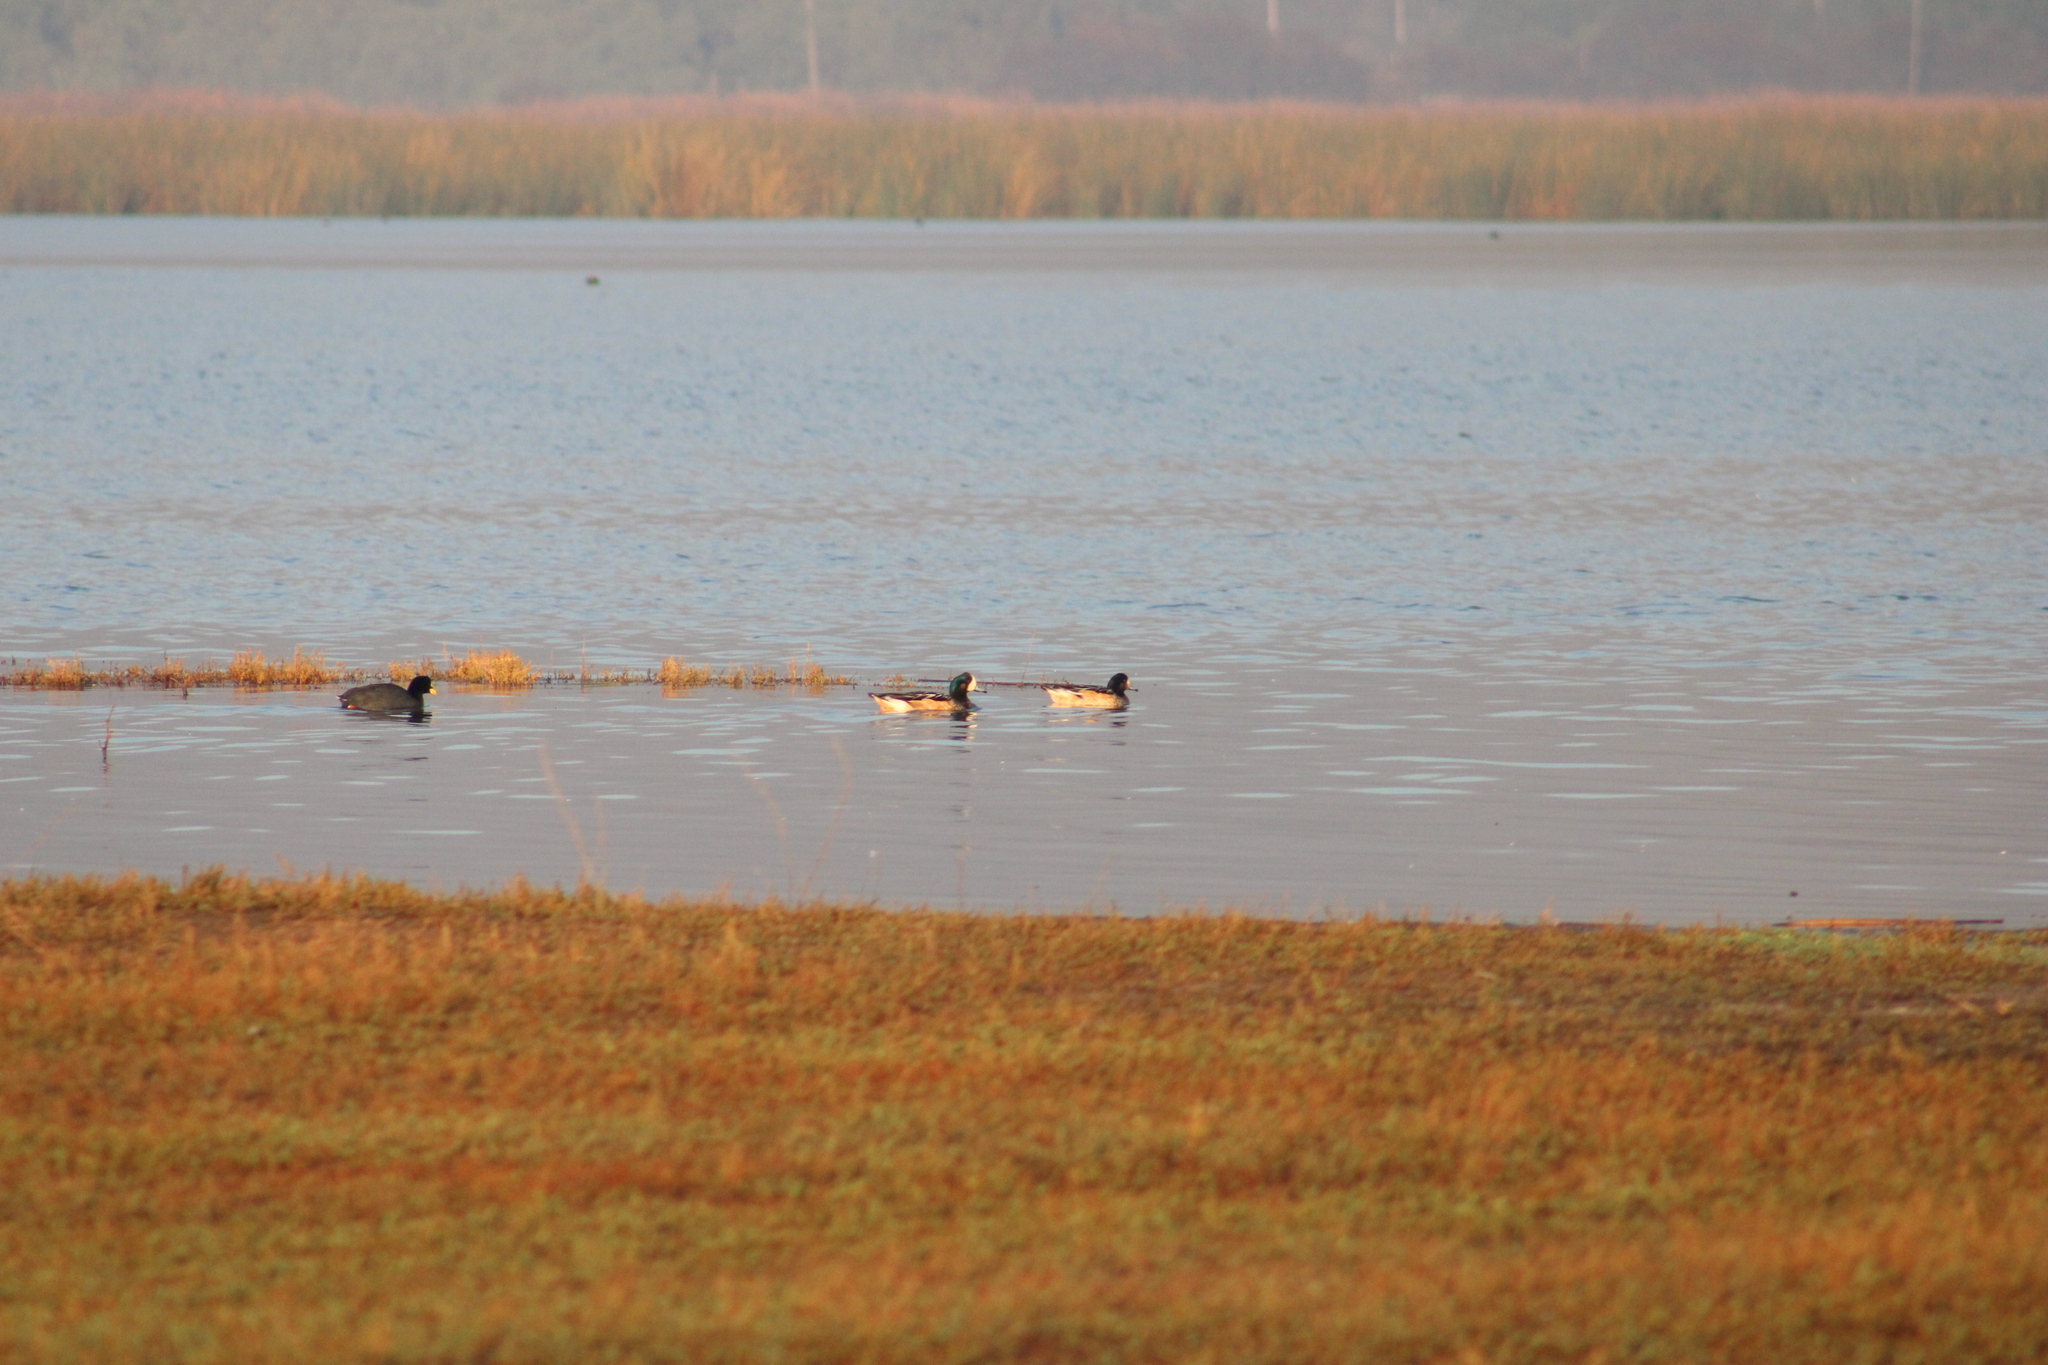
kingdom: Animalia
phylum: Chordata
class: Aves
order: Anseriformes
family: Anatidae
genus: Mareca
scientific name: Mareca sibilatrix
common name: Chiloe wigeon
